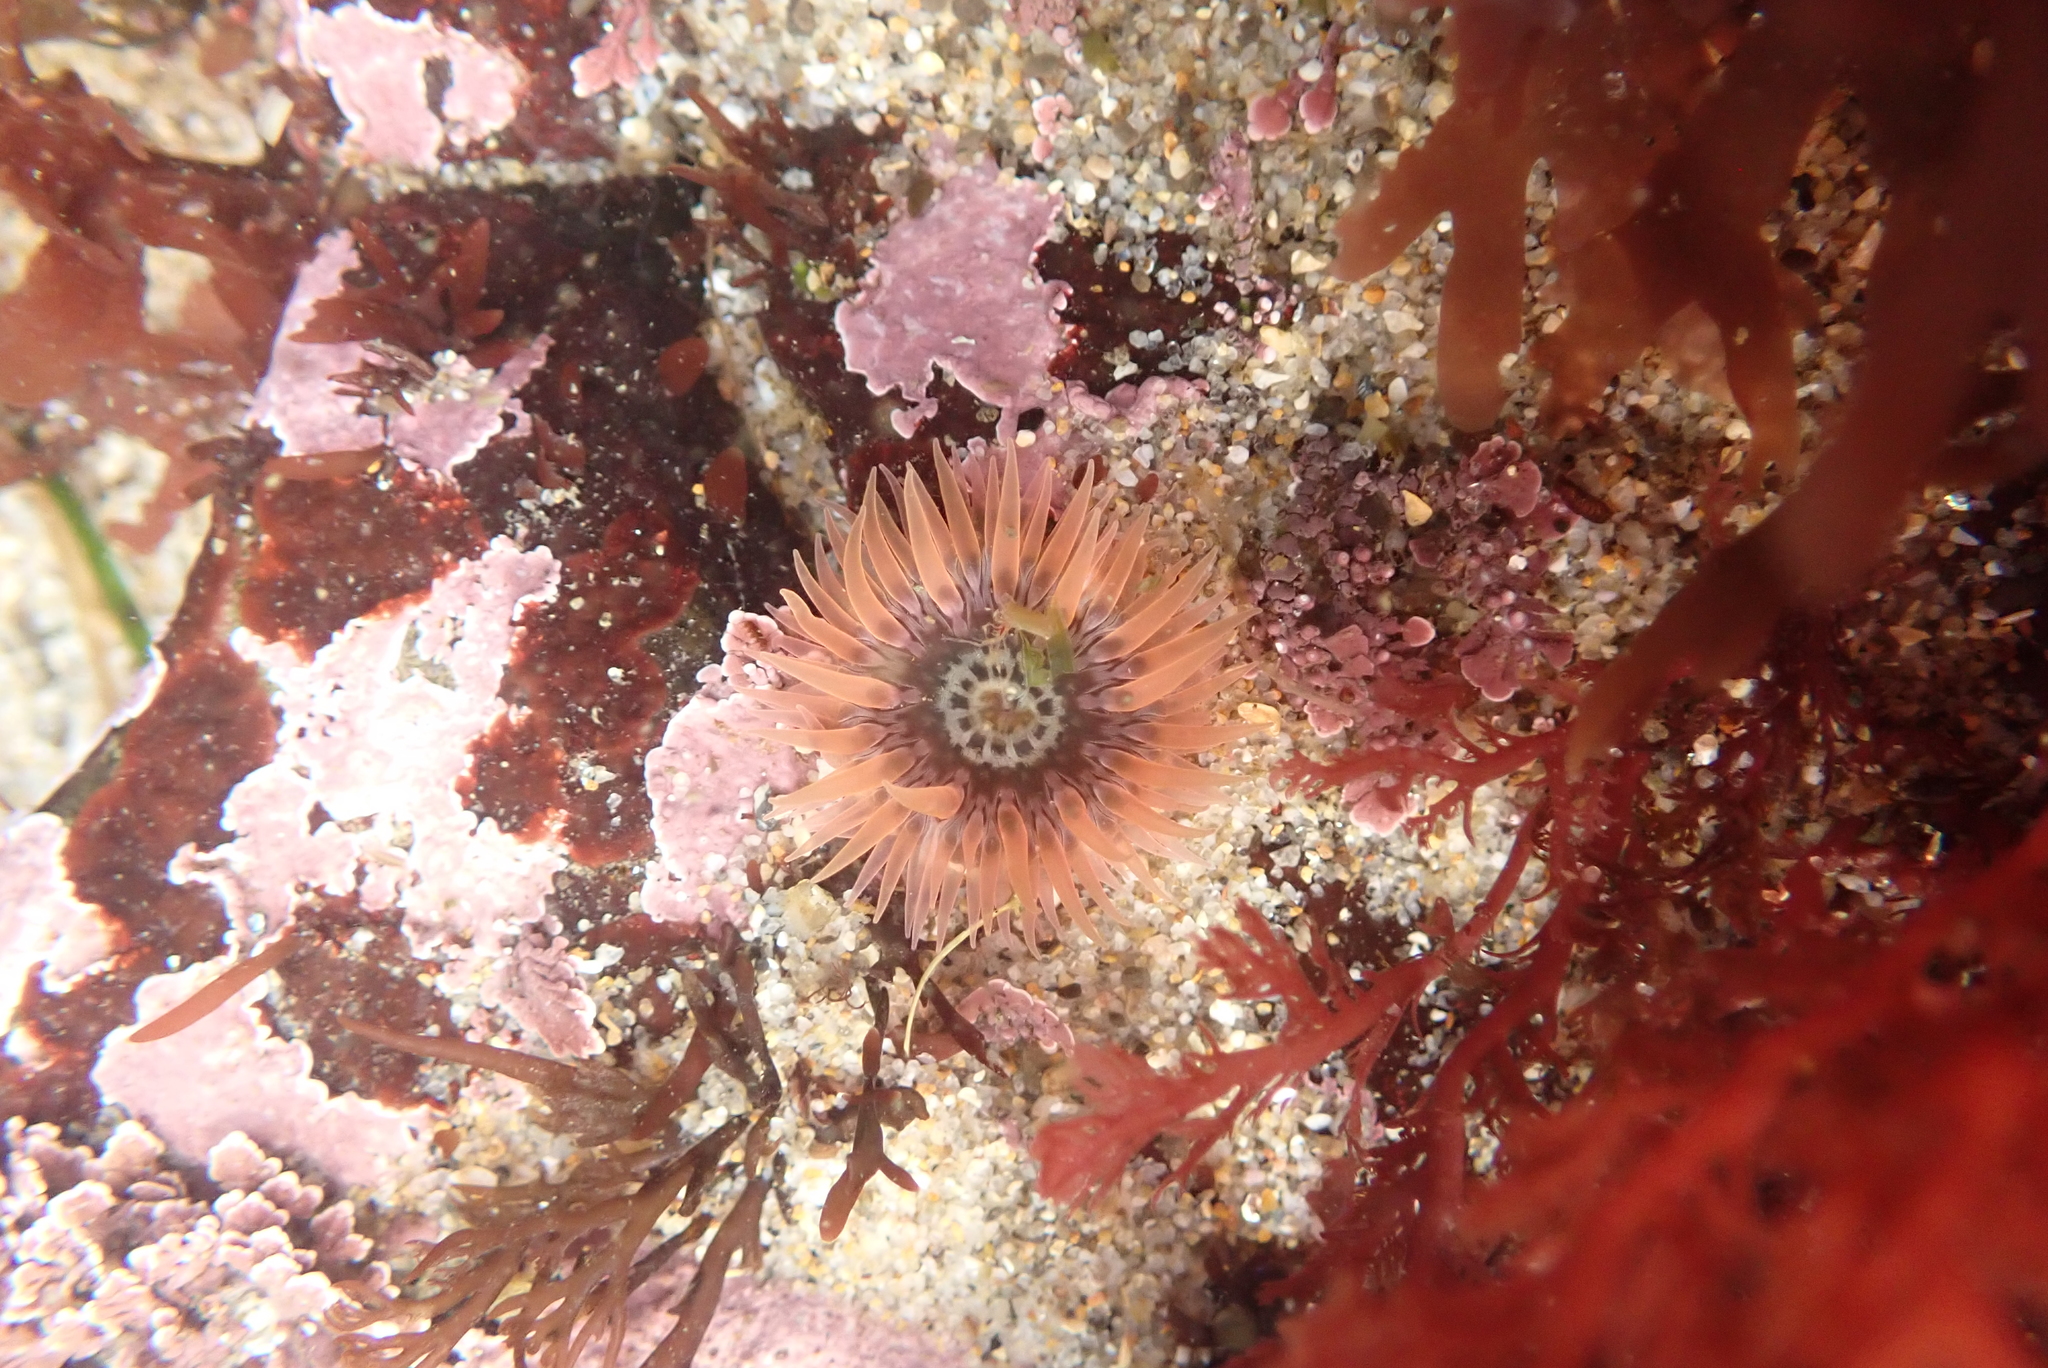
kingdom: Animalia
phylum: Cnidaria
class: Anthozoa
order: Actiniaria
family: Actiniidae
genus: Anthopleura
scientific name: Anthopleura artemisia
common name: Buried sea anemone
